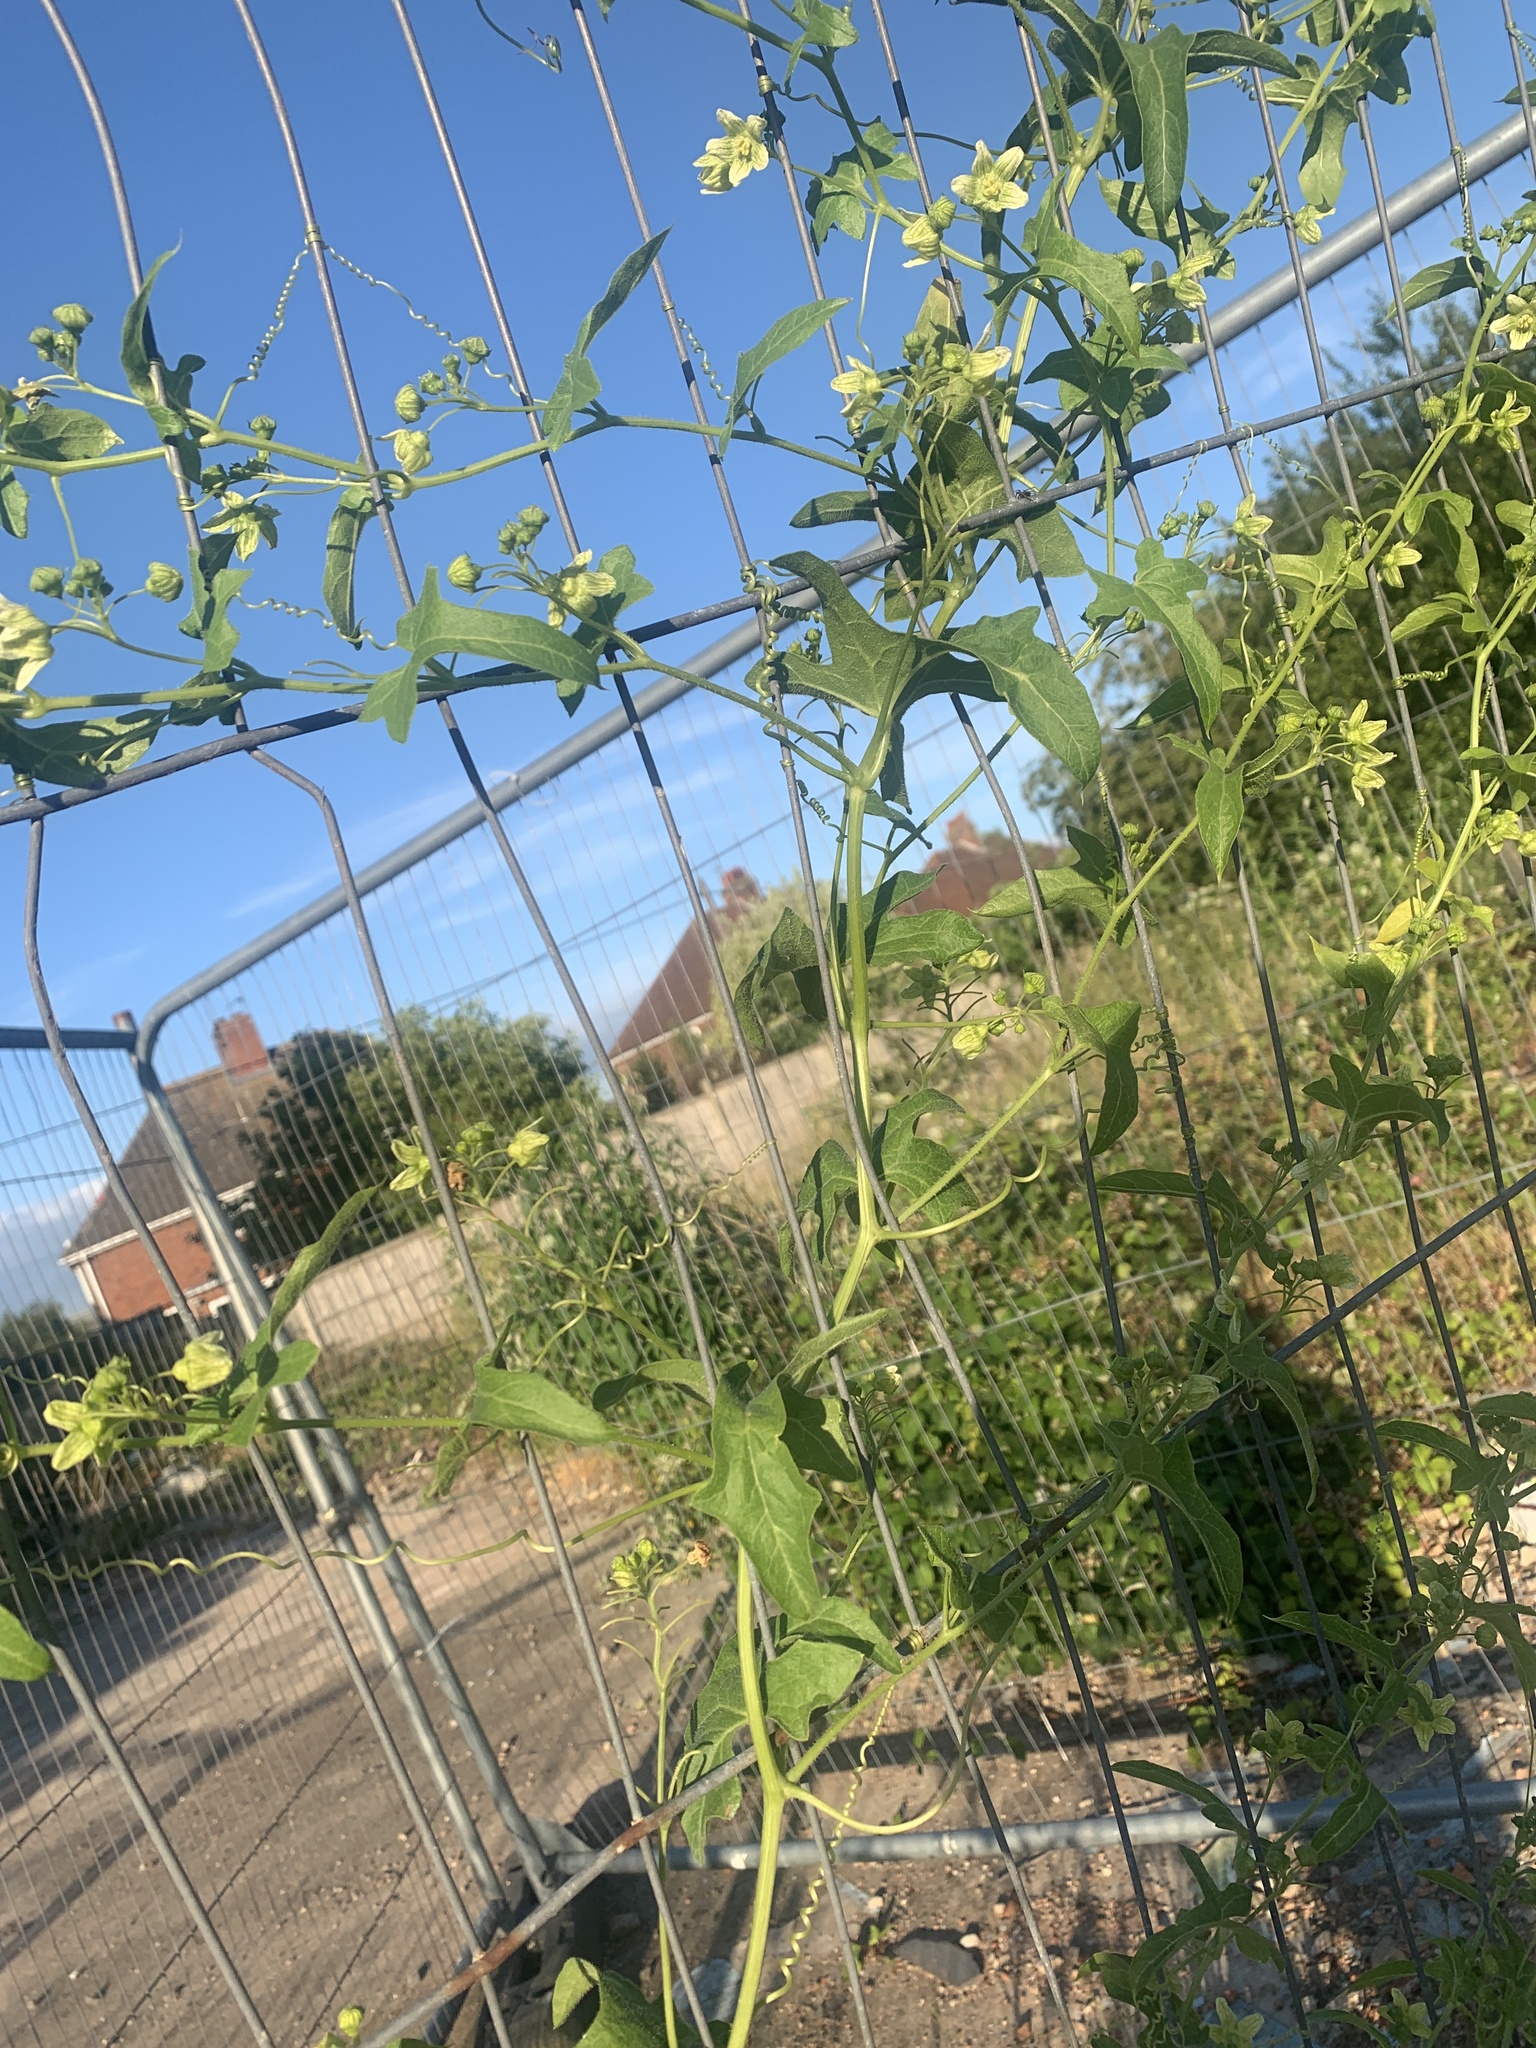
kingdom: Plantae
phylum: Tracheophyta
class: Magnoliopsida
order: Cucurbitales
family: Cucurbitaceae
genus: Bryonia
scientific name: Bryonia cretica
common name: Cretan bryony
